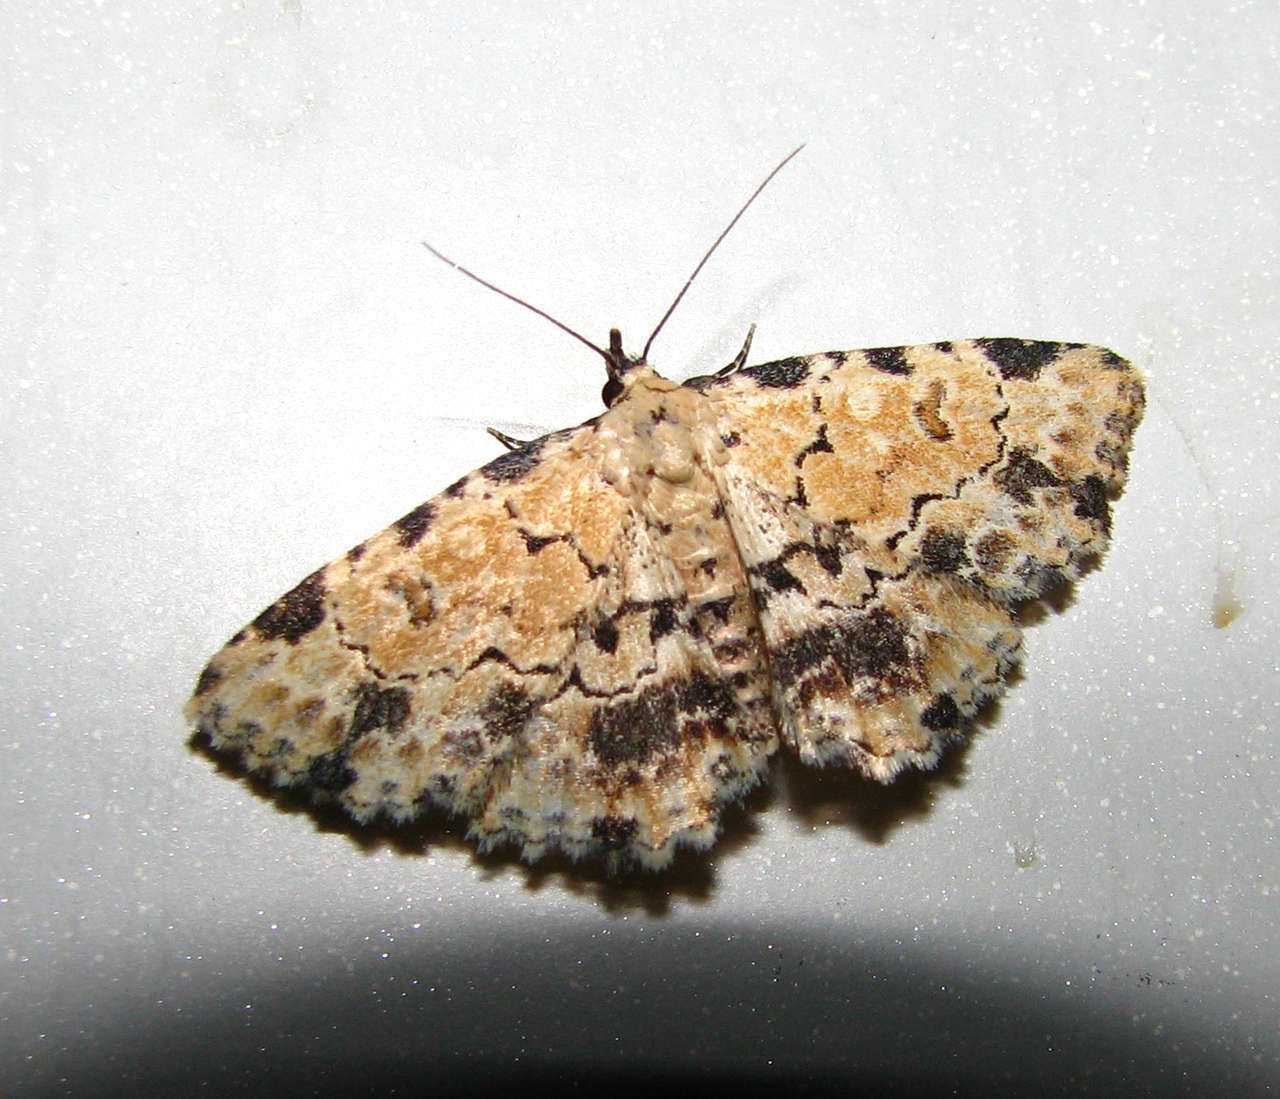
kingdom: Animalia
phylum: Arthropoda
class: Insecta
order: Lepidoptera
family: Erebidae
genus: Sandava
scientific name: Sandava scitisignata
